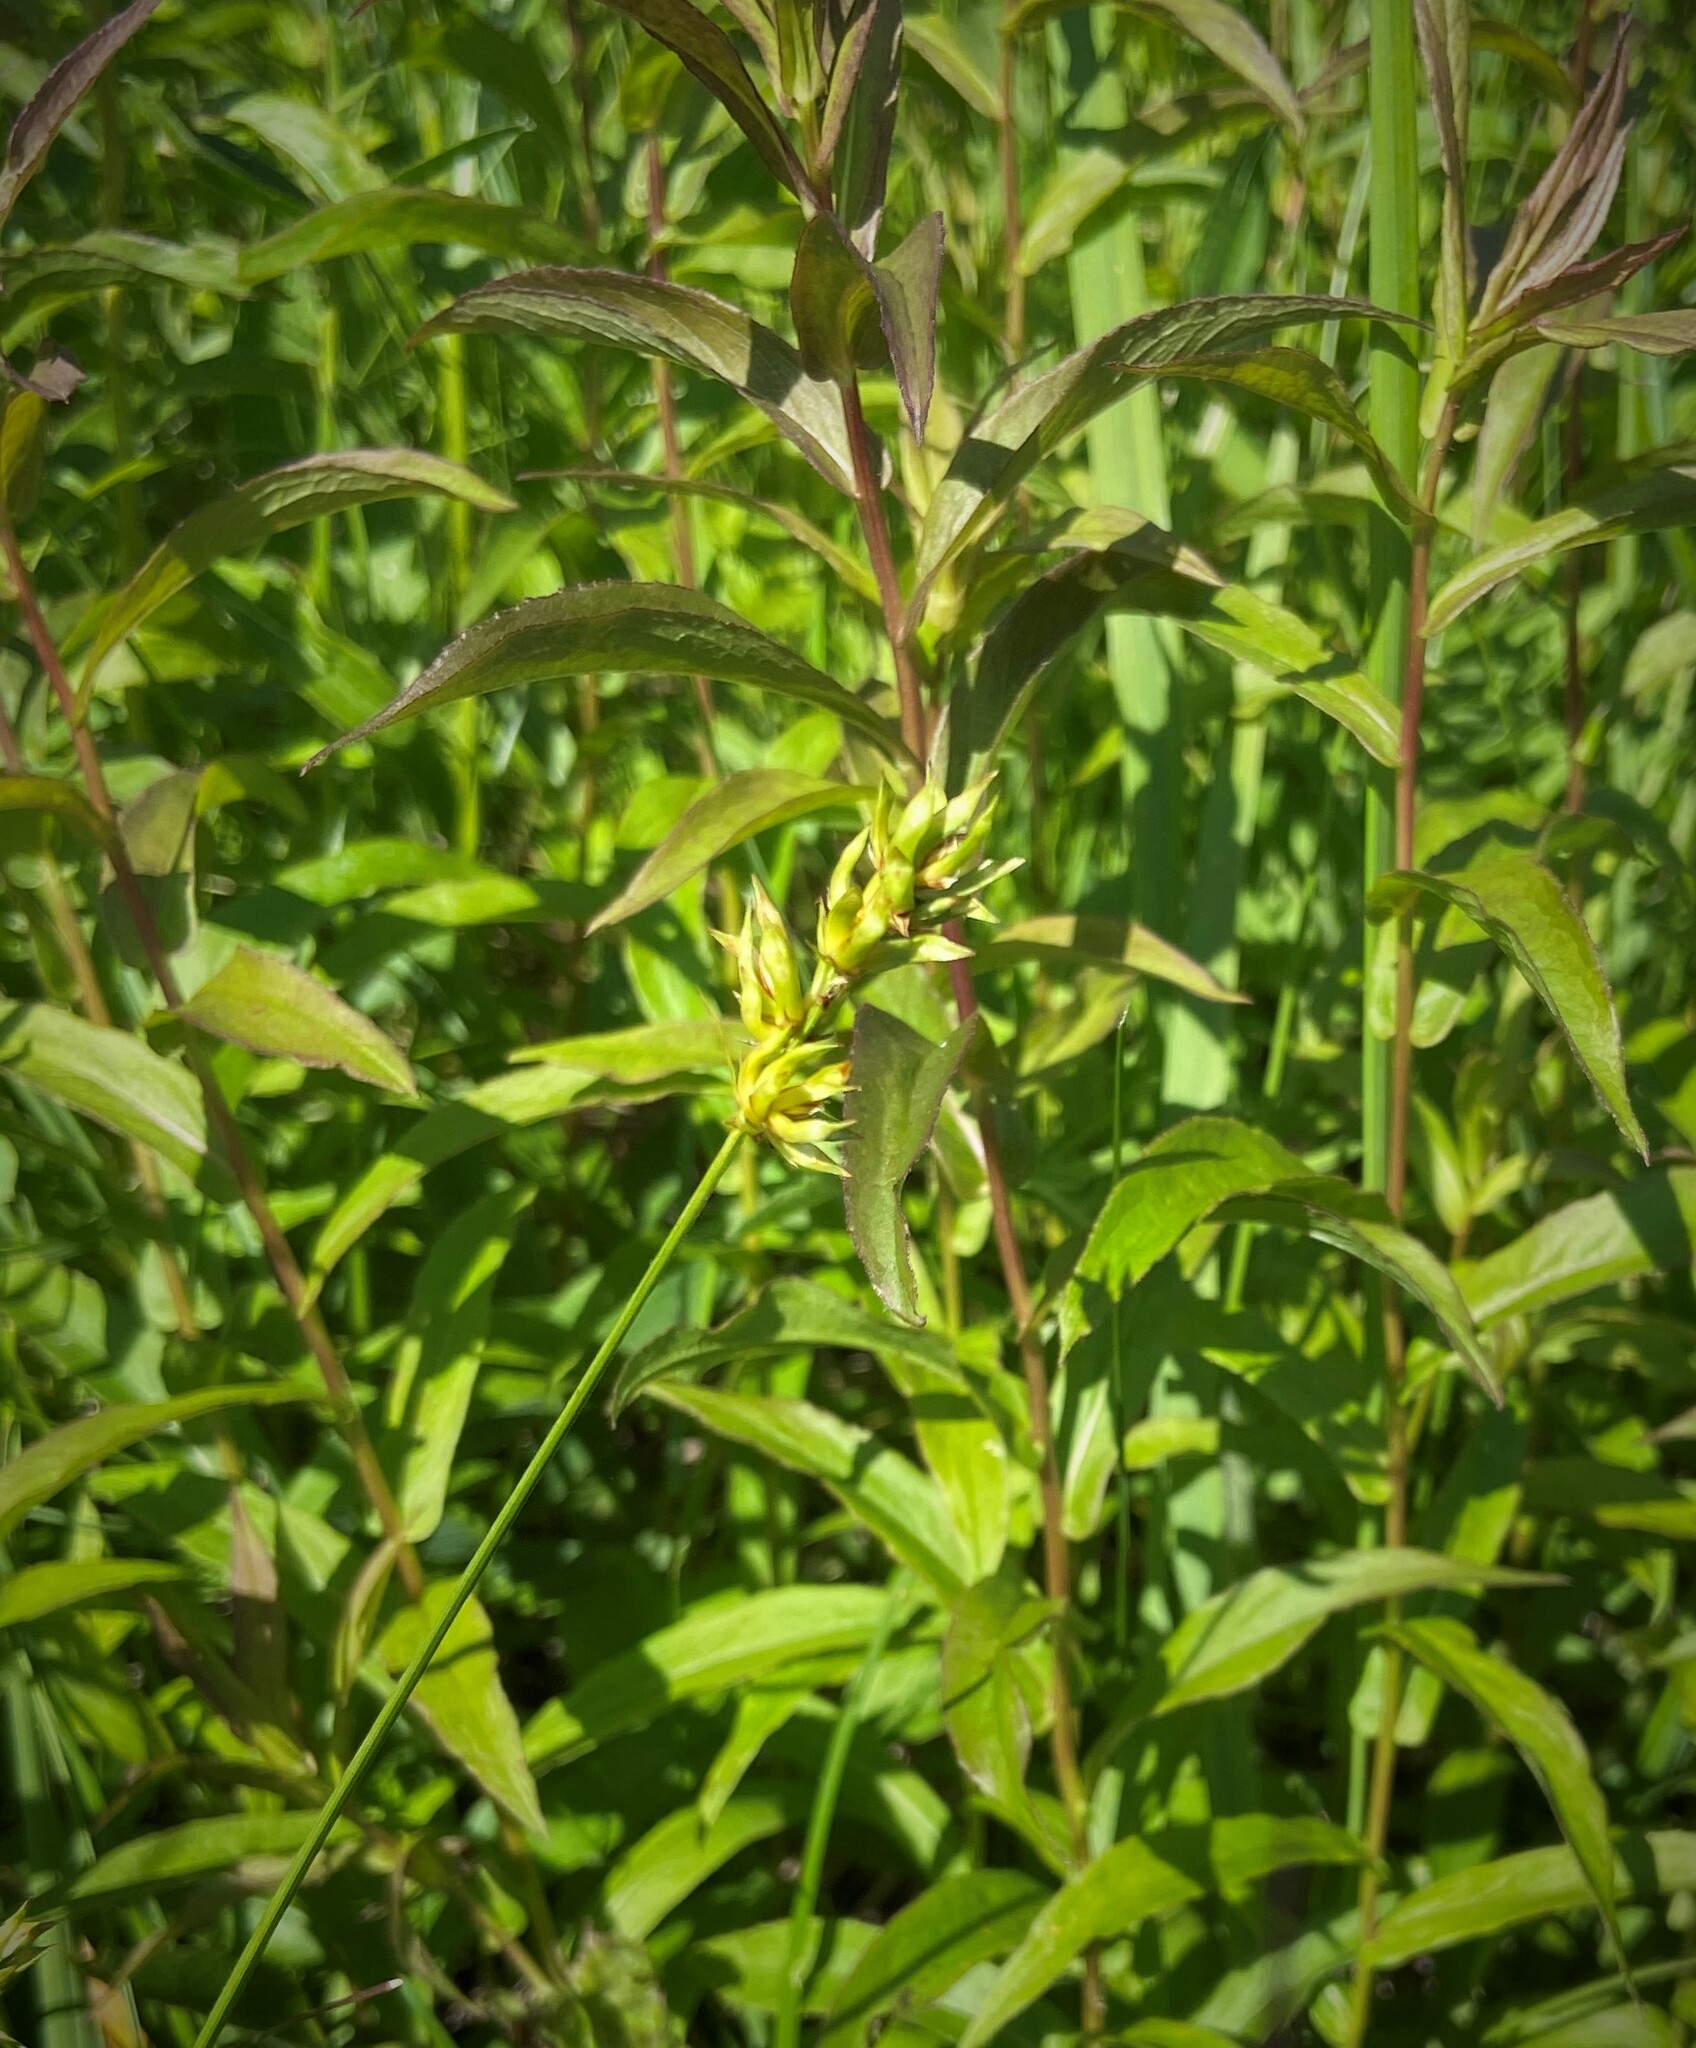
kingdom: Plantae
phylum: Tracheophyta
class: Liliopsida
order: Poales
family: Cyperaceae
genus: Carex
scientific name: Carex spicata
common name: Spiked sedge
